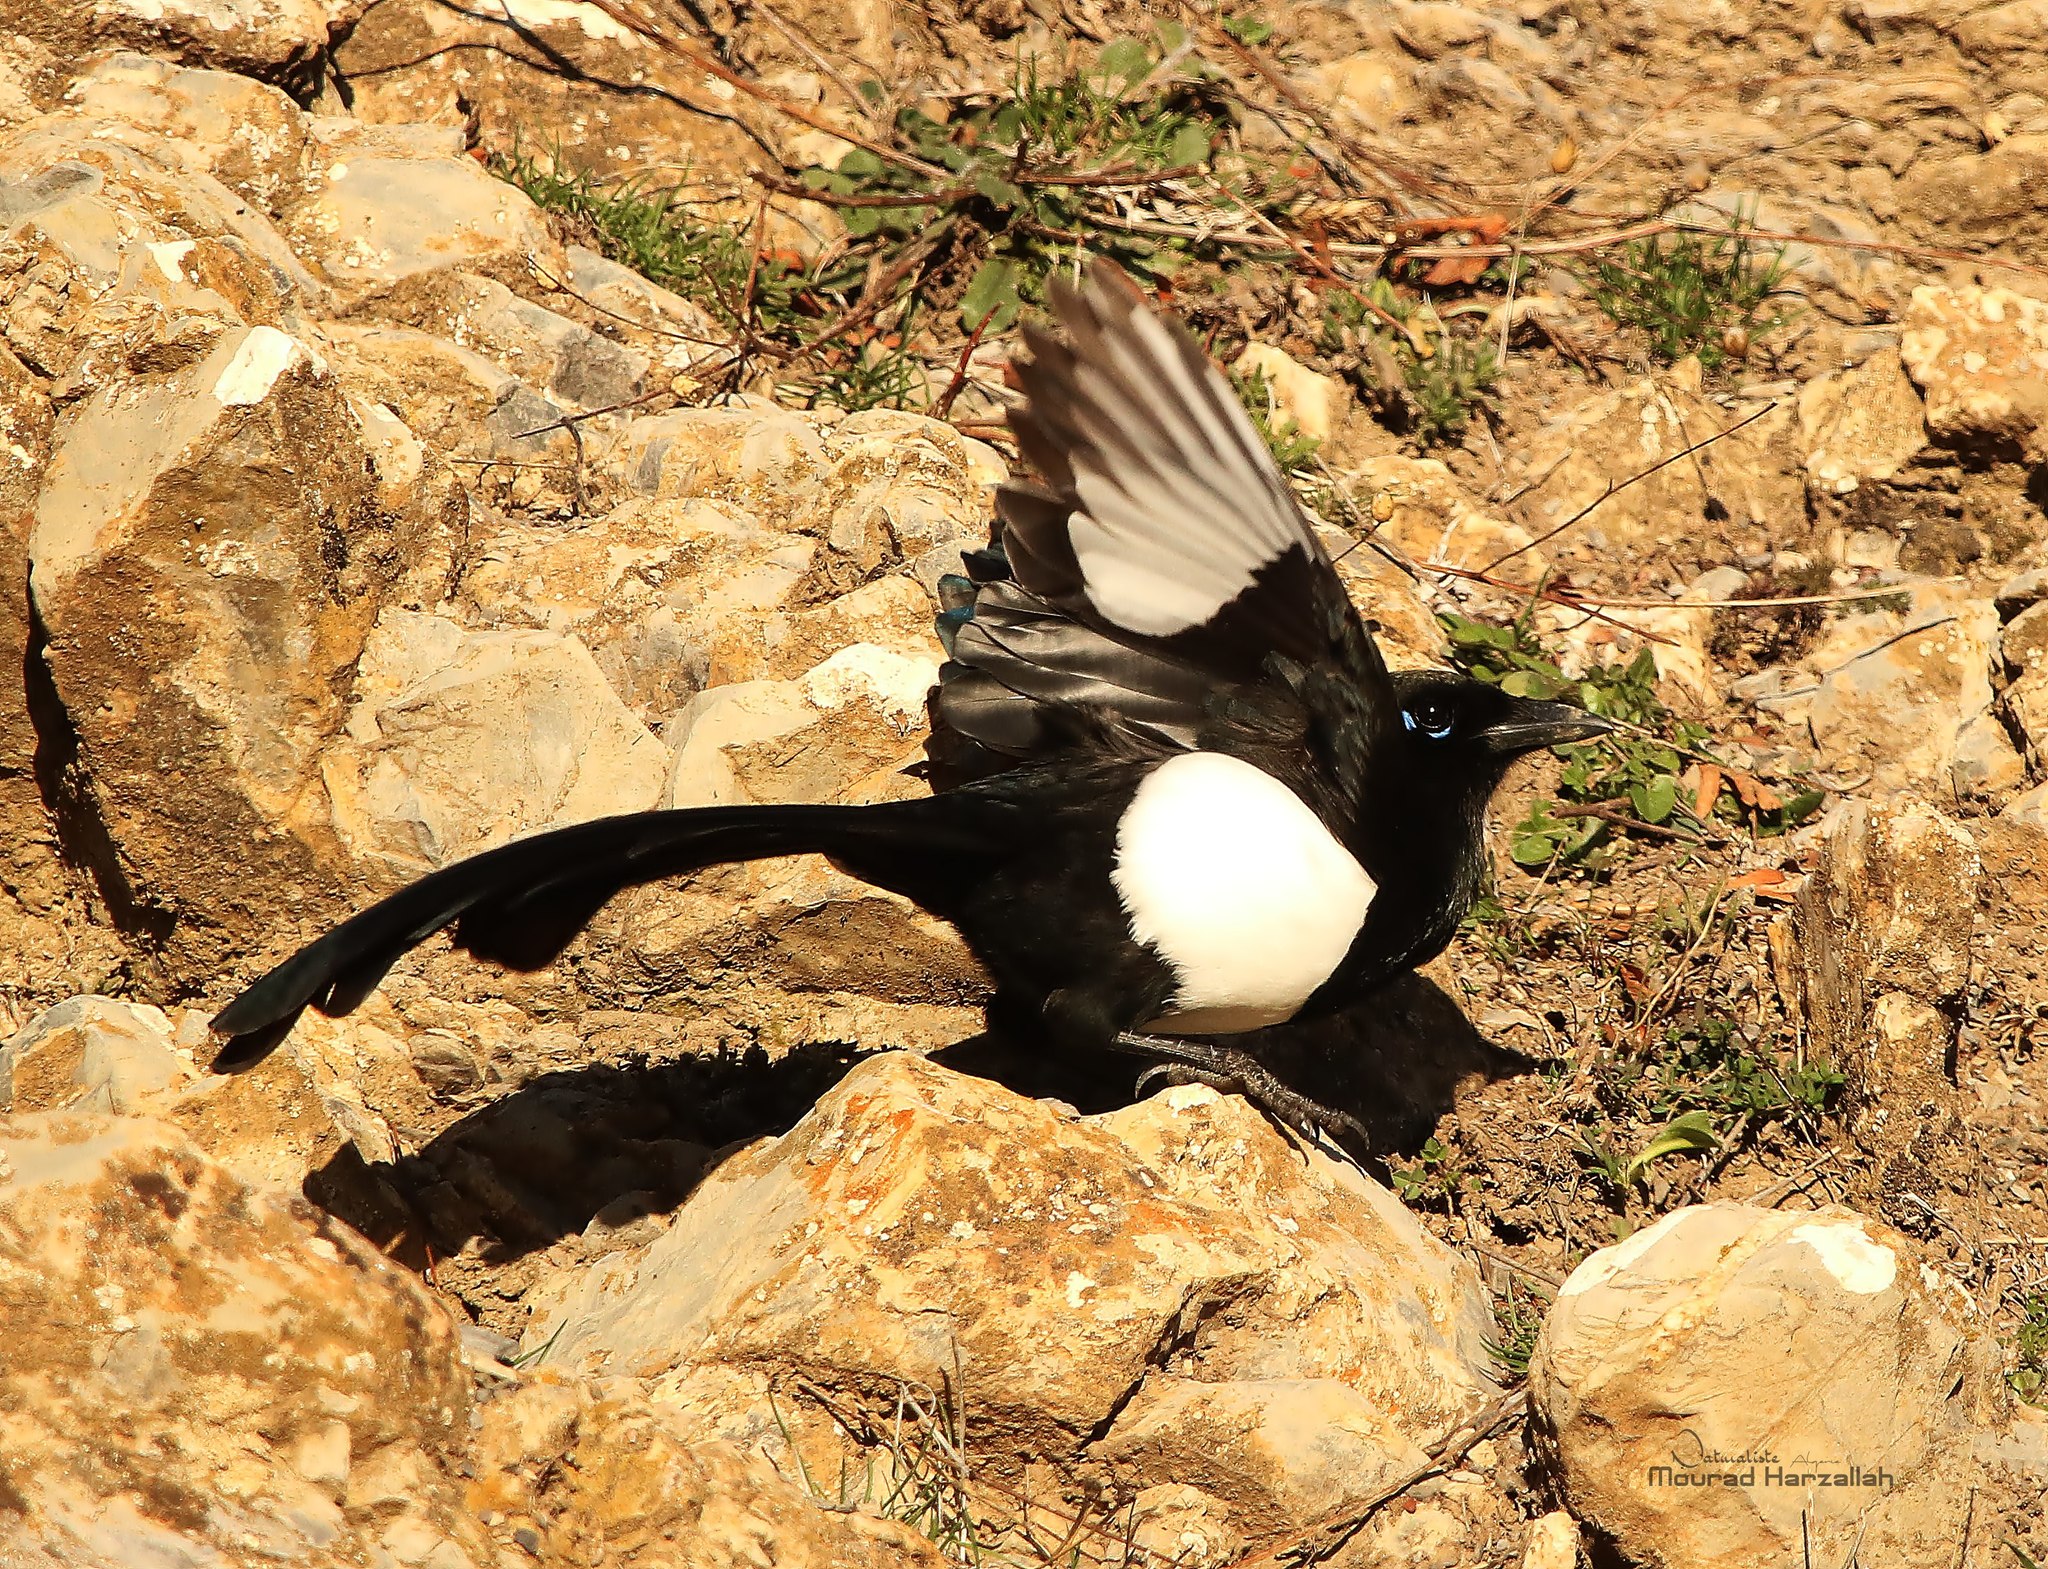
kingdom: Animalia
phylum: Chordata
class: Aves
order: Passeriformes
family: Corvidae
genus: Pica
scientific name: Pica mauritanica
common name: Maghreb magpie
